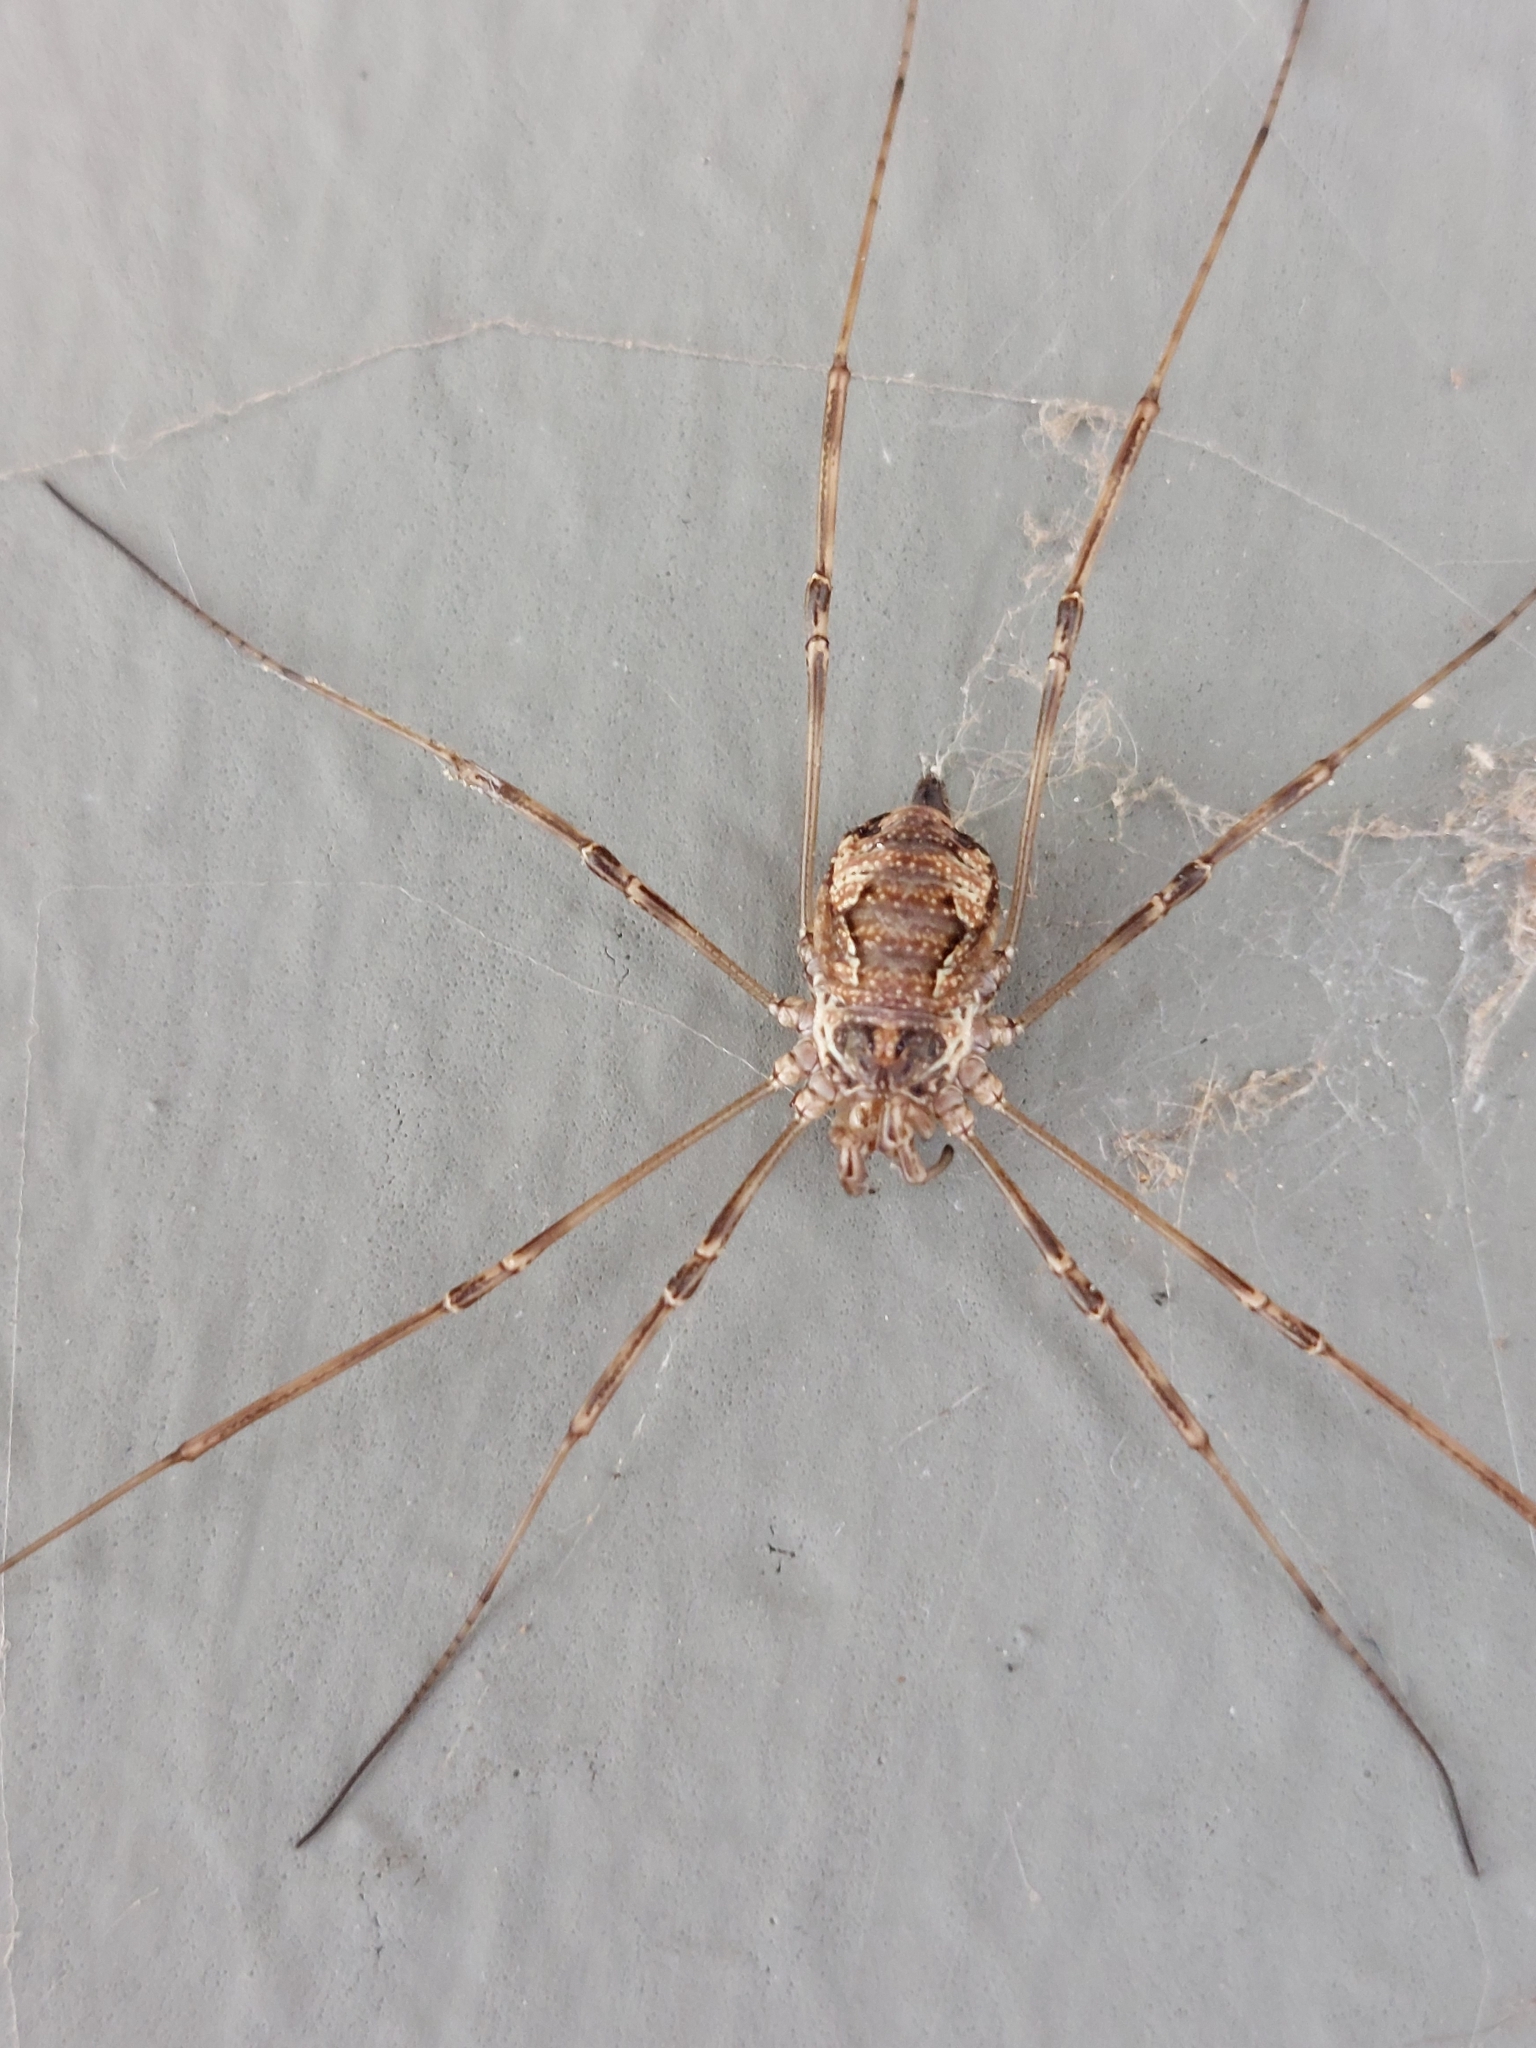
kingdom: Animalia
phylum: Arthropoda
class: Arachnida
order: Opiliones
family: Phalangiidae
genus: Dasylobus
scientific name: Dasylobus graniferus
